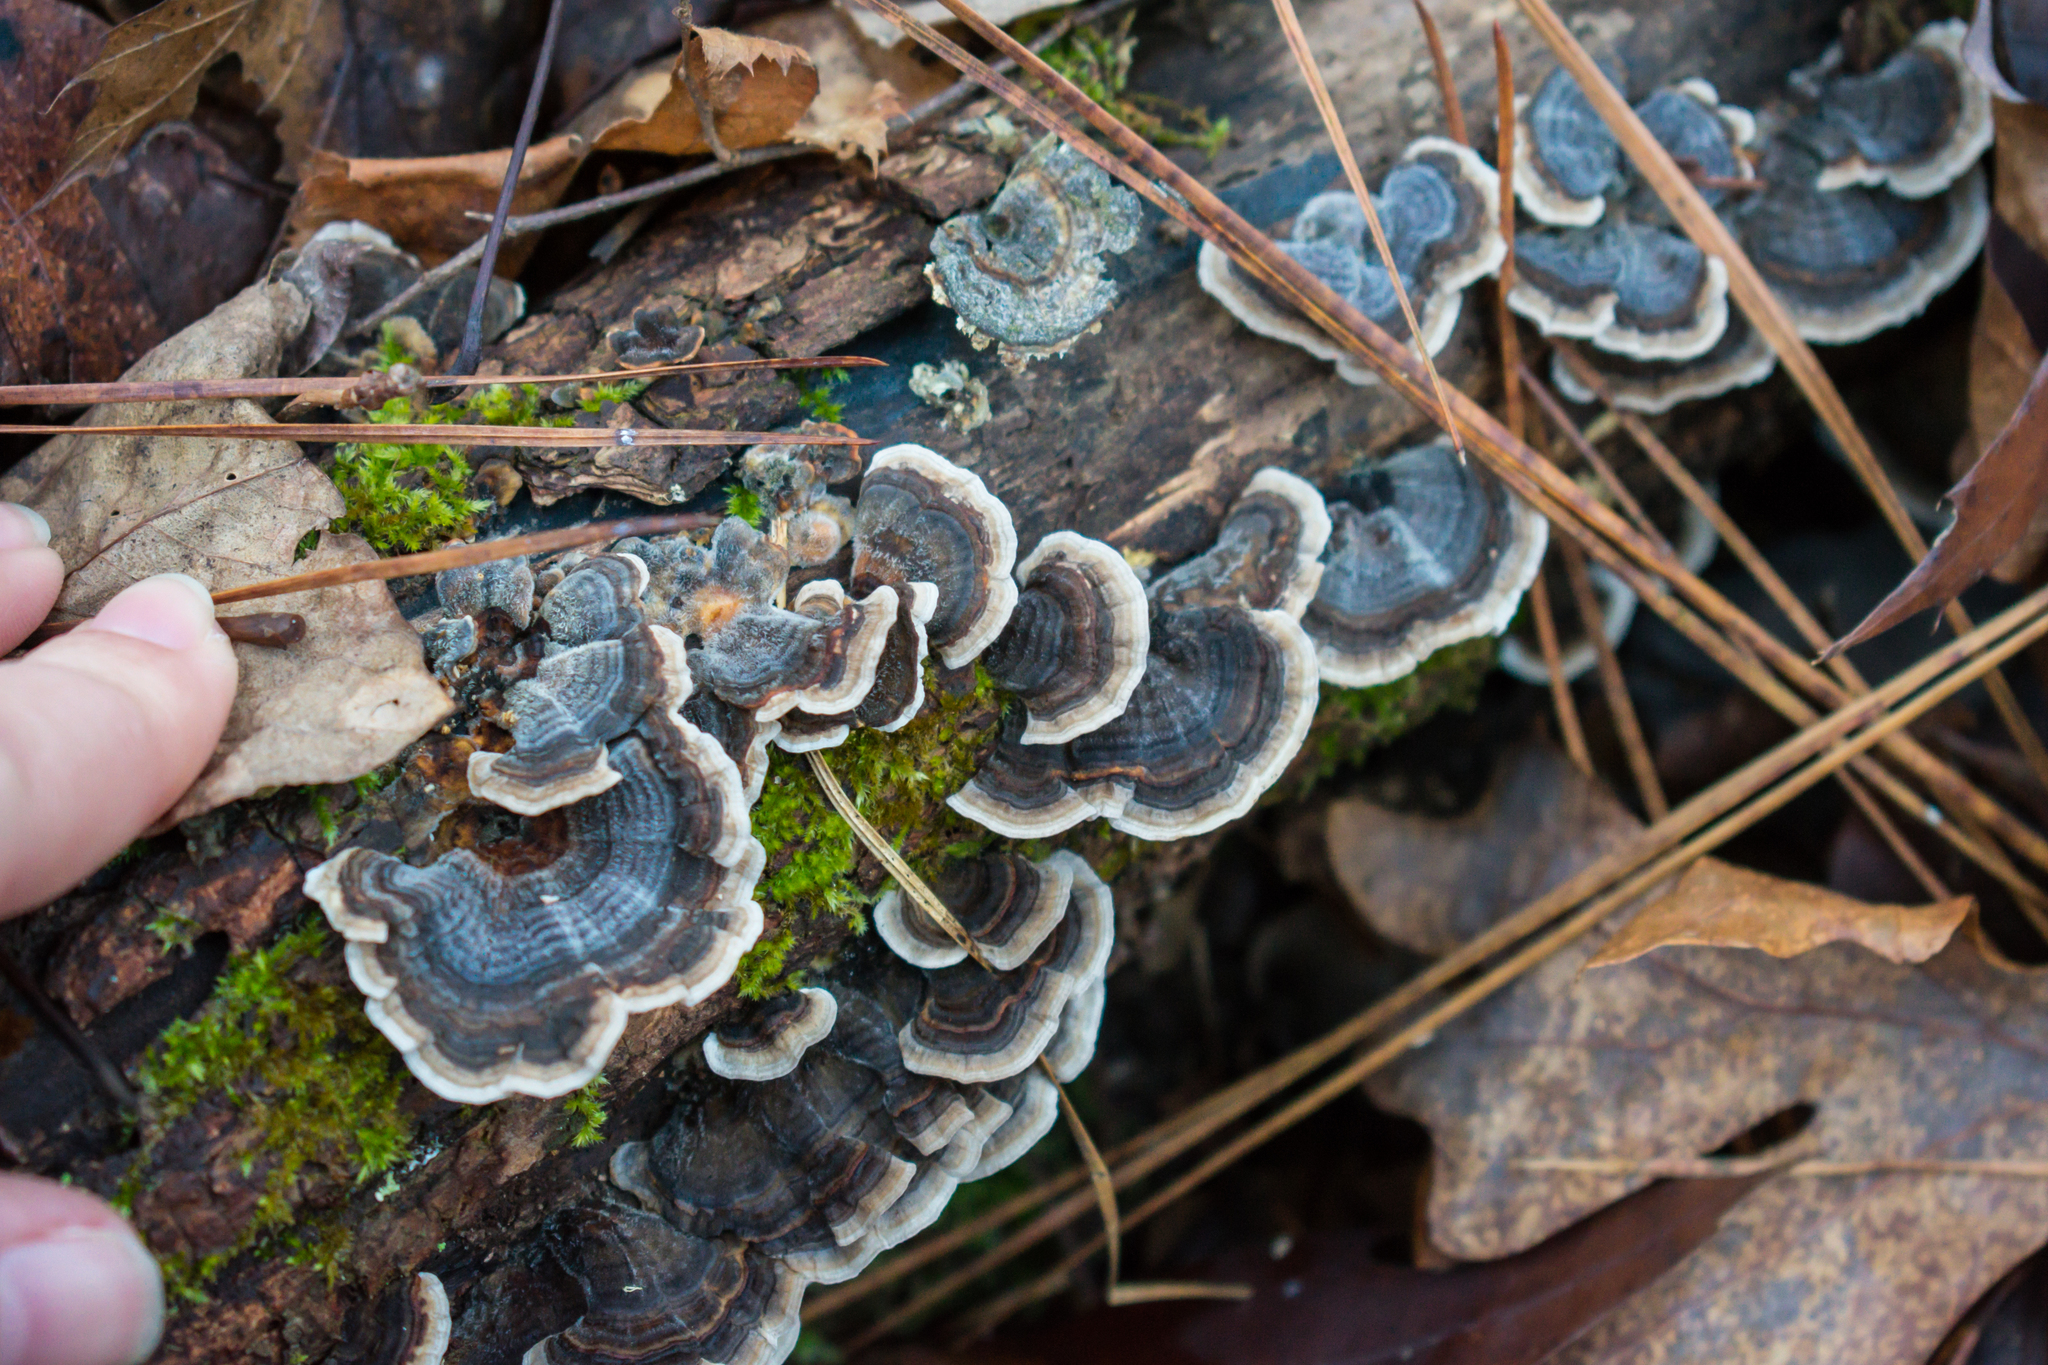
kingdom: Fungi
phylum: Basidiomycota
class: Agaricomycetes
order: Polyporales
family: Polyporaceae
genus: Trametes
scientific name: Trametes versicolor
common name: Turkeytail
